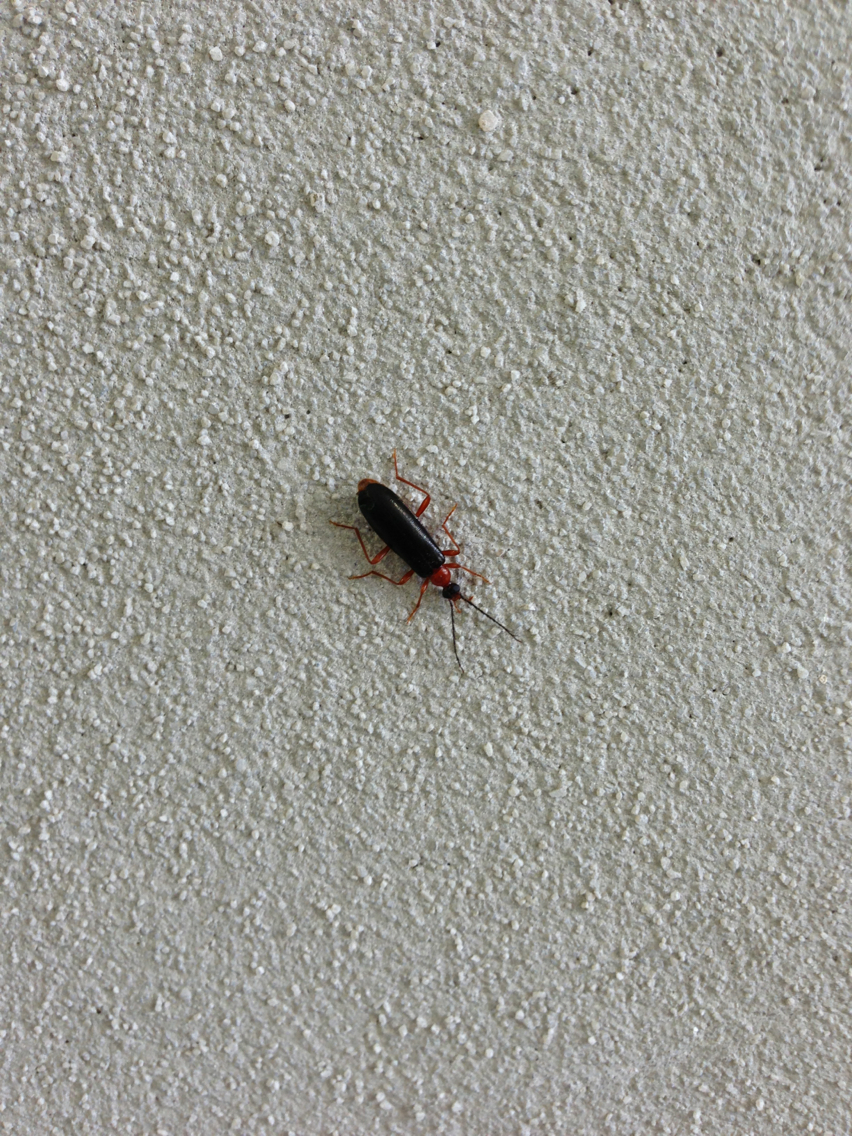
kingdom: Animalia
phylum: Arthropoda
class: Insecta
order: Coleoptera
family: Pyrochroidae
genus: Dendroides
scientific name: Dendroides canadensis
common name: Canada fire-colored beetle
